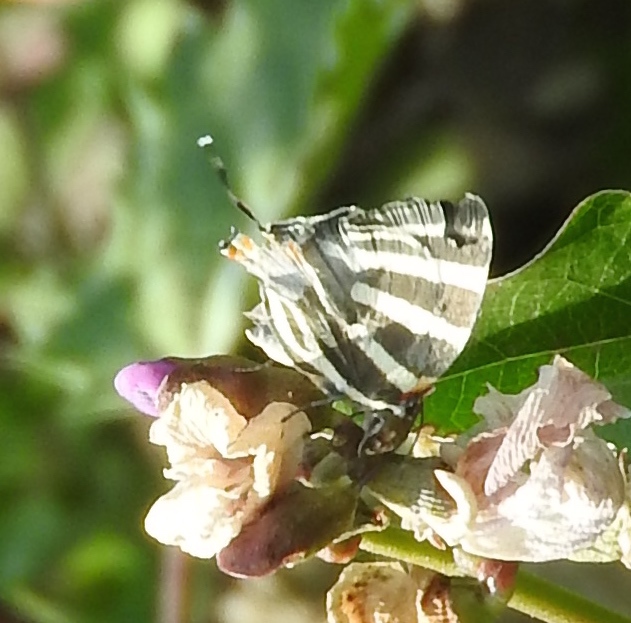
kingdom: Animalia
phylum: Arthropoda
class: Insecta
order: Lepidoptera
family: Lycaenidae
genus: Thecla
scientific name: Thecla bathildis
